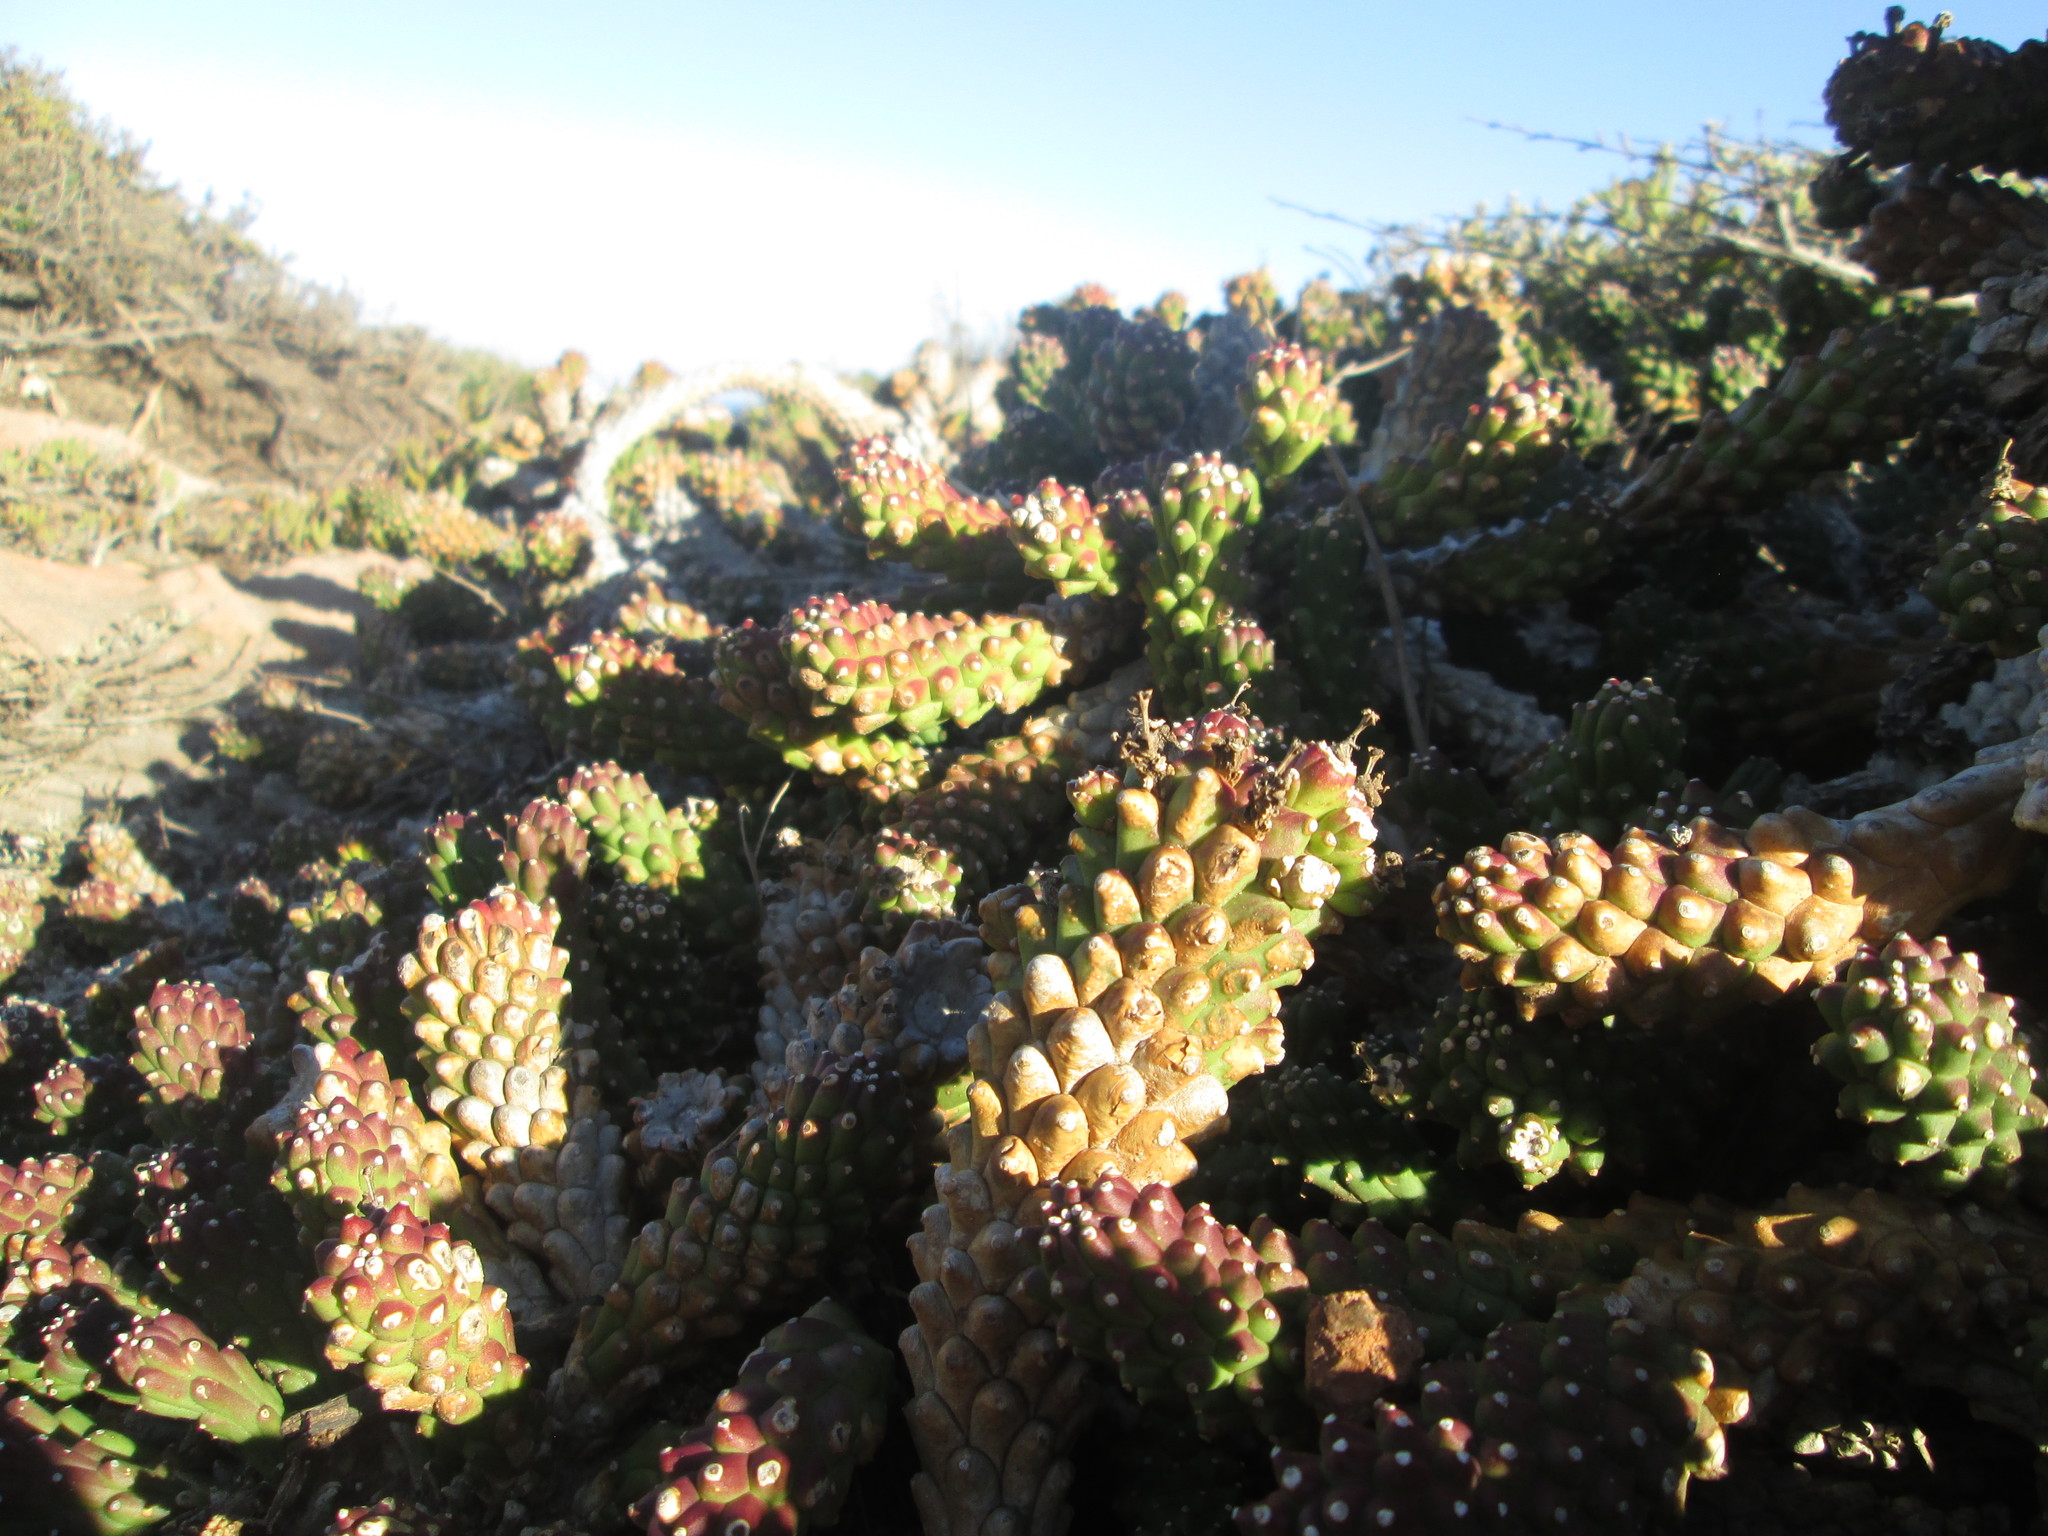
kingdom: Plantae
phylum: Tracheophyta
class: Magnoliopsida
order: Malpighiales
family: Euphorbiaceae
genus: Euphorbia
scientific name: Euphorbia caput-medusae
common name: Medusa's-head
